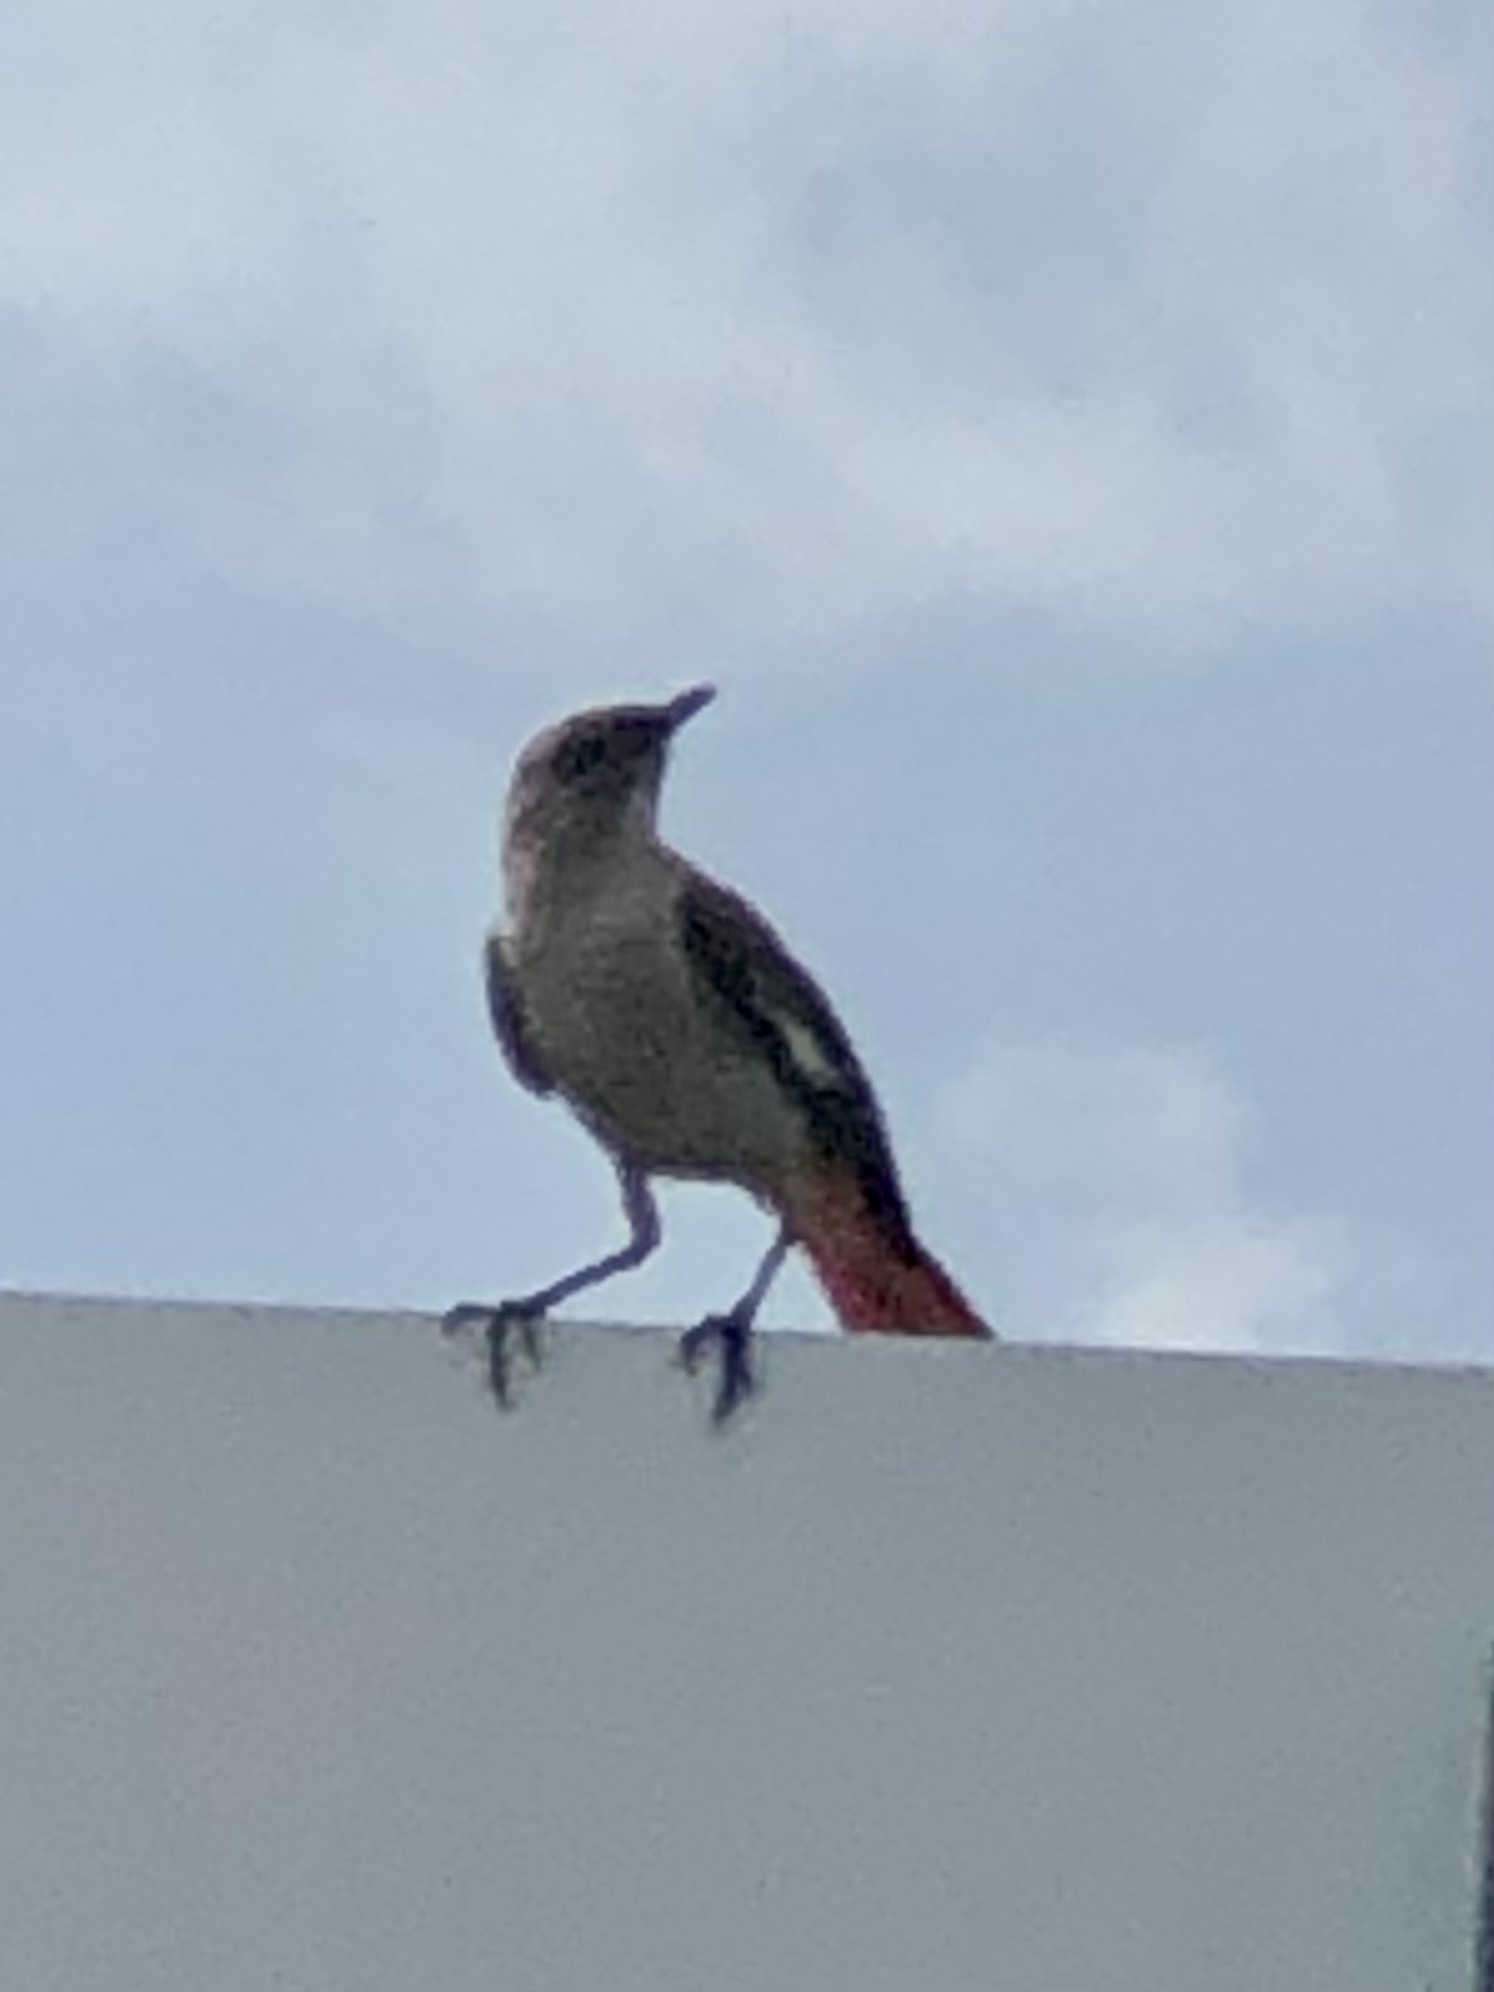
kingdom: Animalia
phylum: Chordata
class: Aves
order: Passeriformes
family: Mimidae
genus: Mimus
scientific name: Mimus polyglottos
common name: Northern mockingbird
